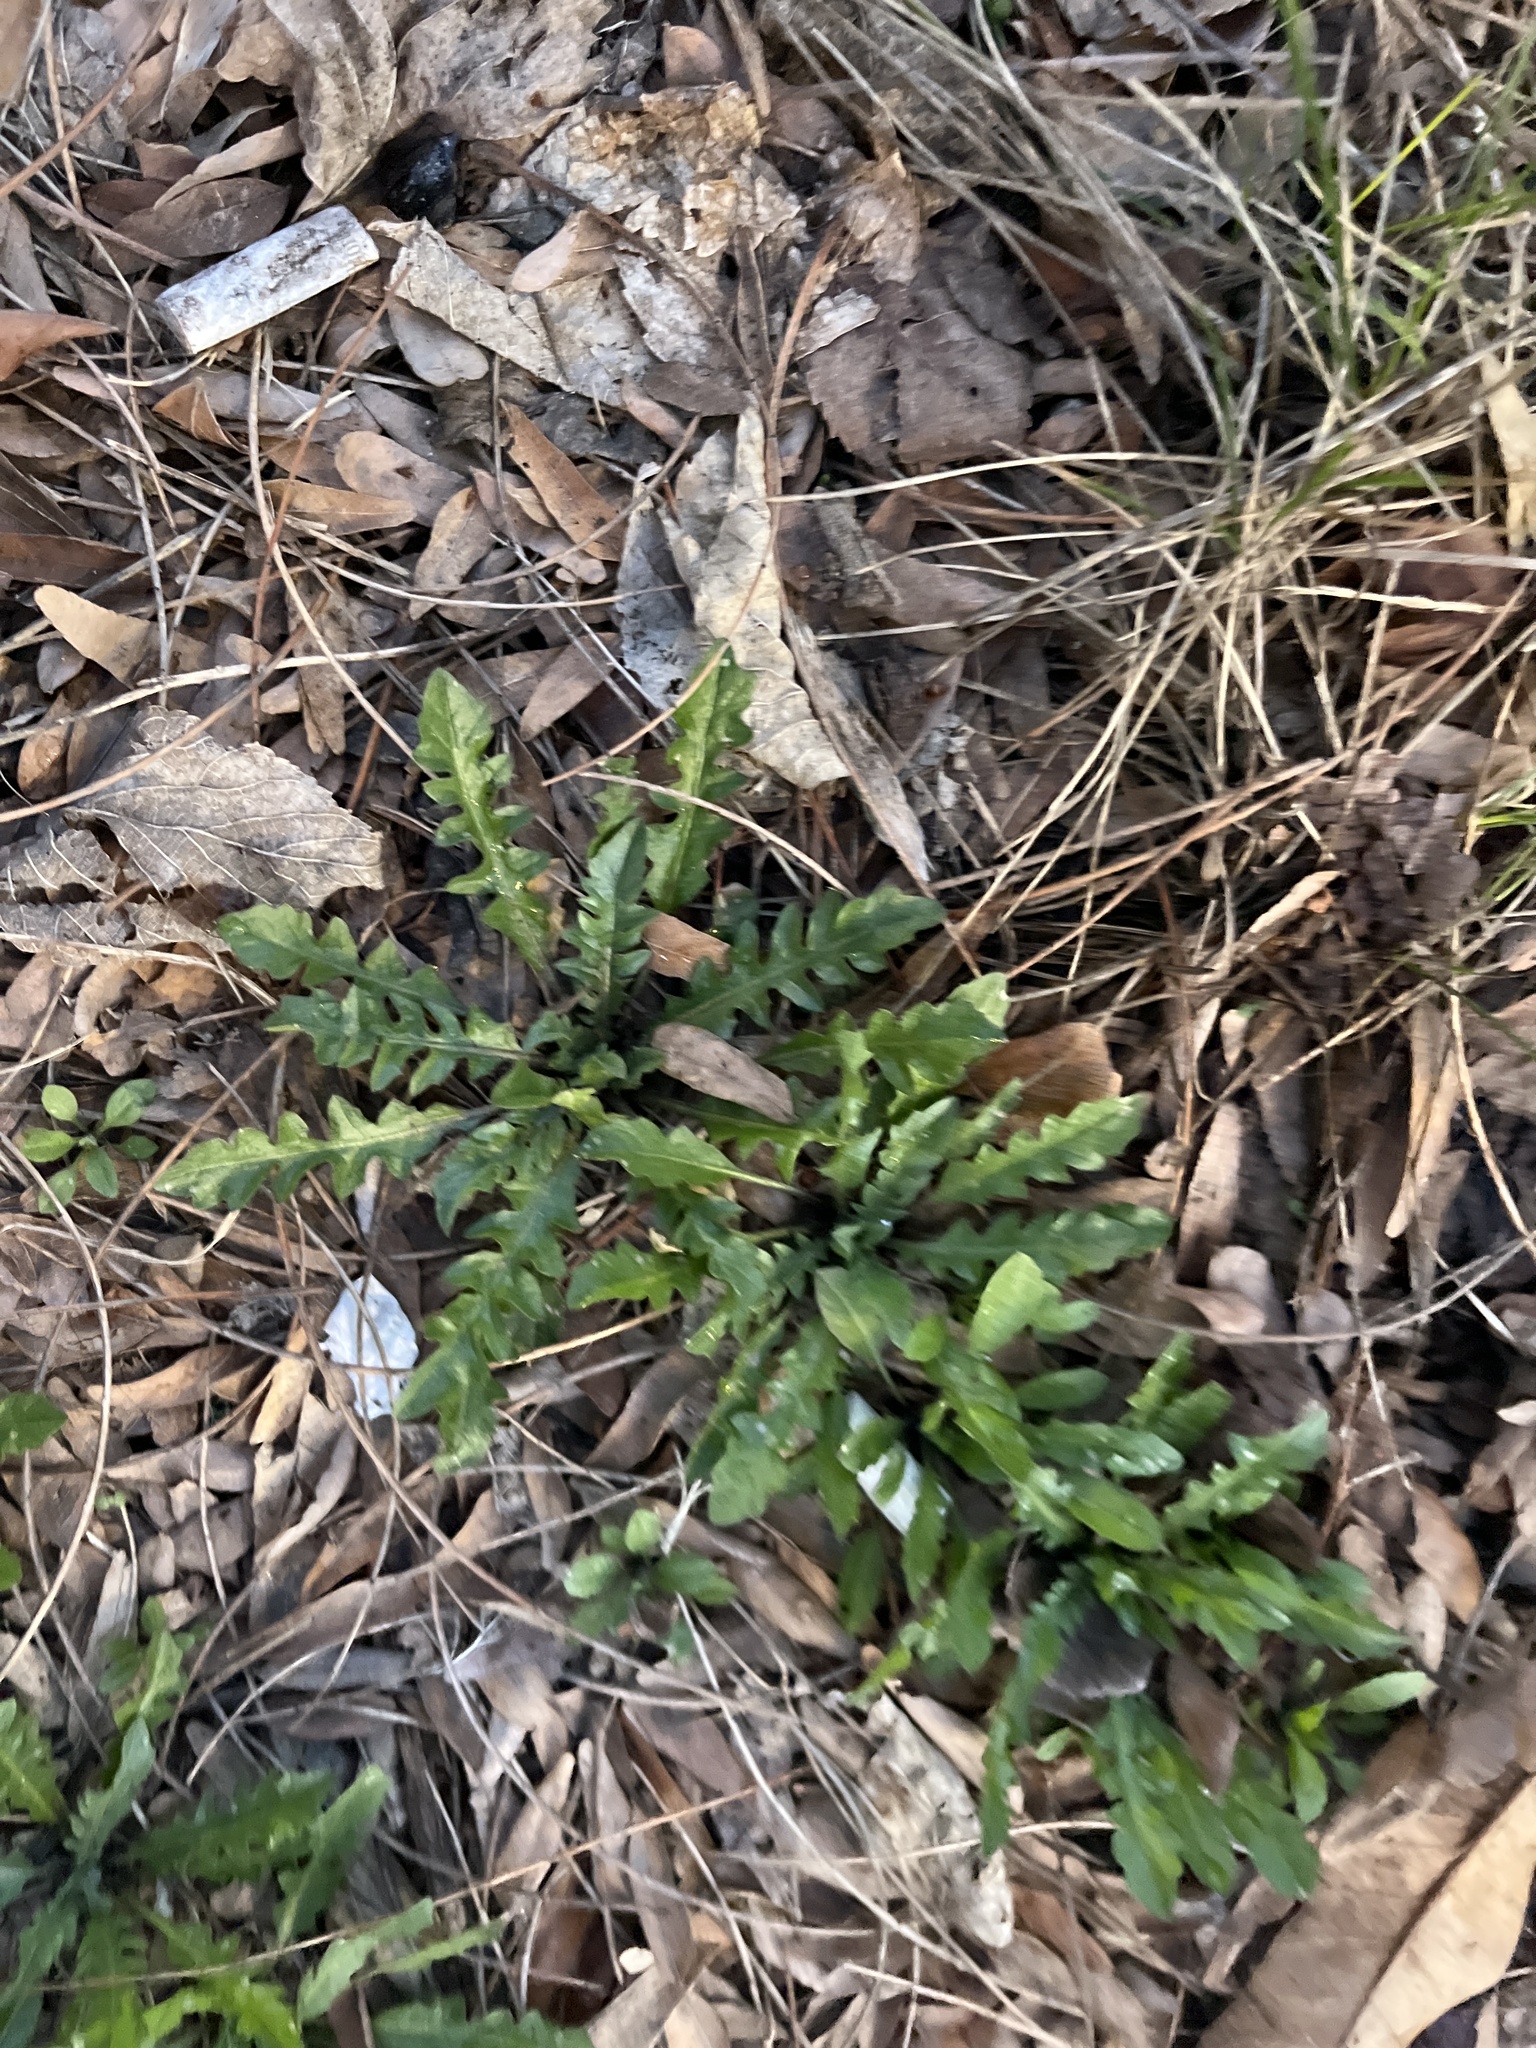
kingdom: Plantae
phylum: Tracheophyta
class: Magnoliopsida
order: Brassicales
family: Brassicaceae
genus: Capsella
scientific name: Capsella bursa-pastoris
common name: Shepherd's purse
